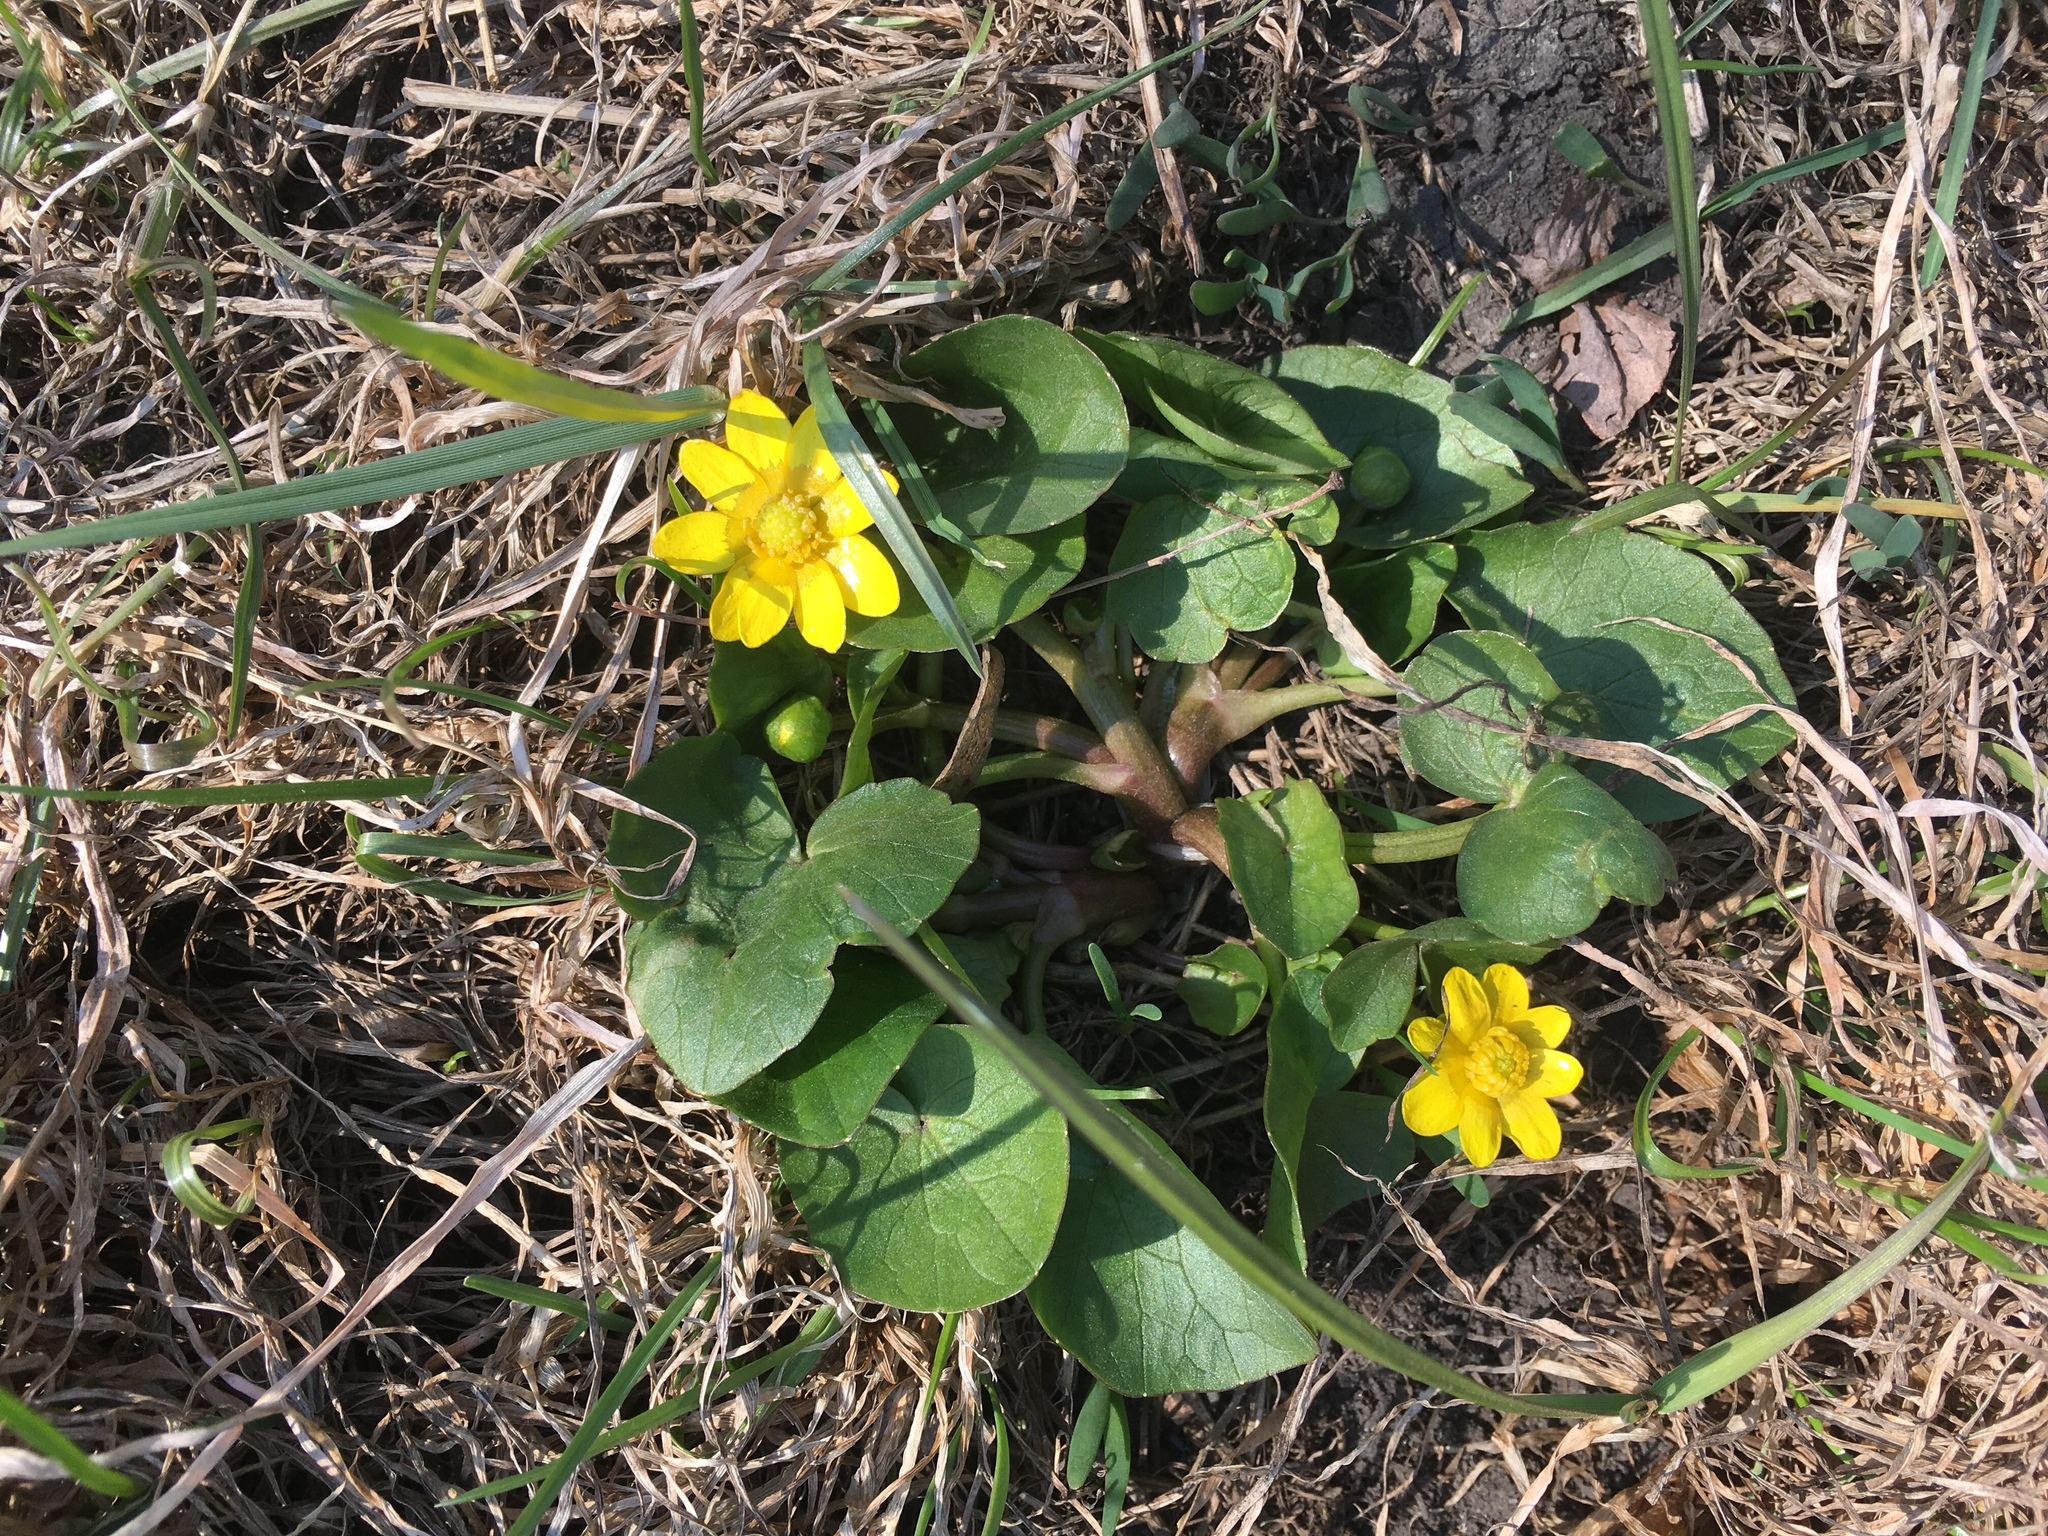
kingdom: Plantae
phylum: Tracheophyta
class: Magnoliopsida
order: Ranunculales
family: Ranunculaceae
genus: Ficaria
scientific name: Ficaria verna
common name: Lesser celandine
